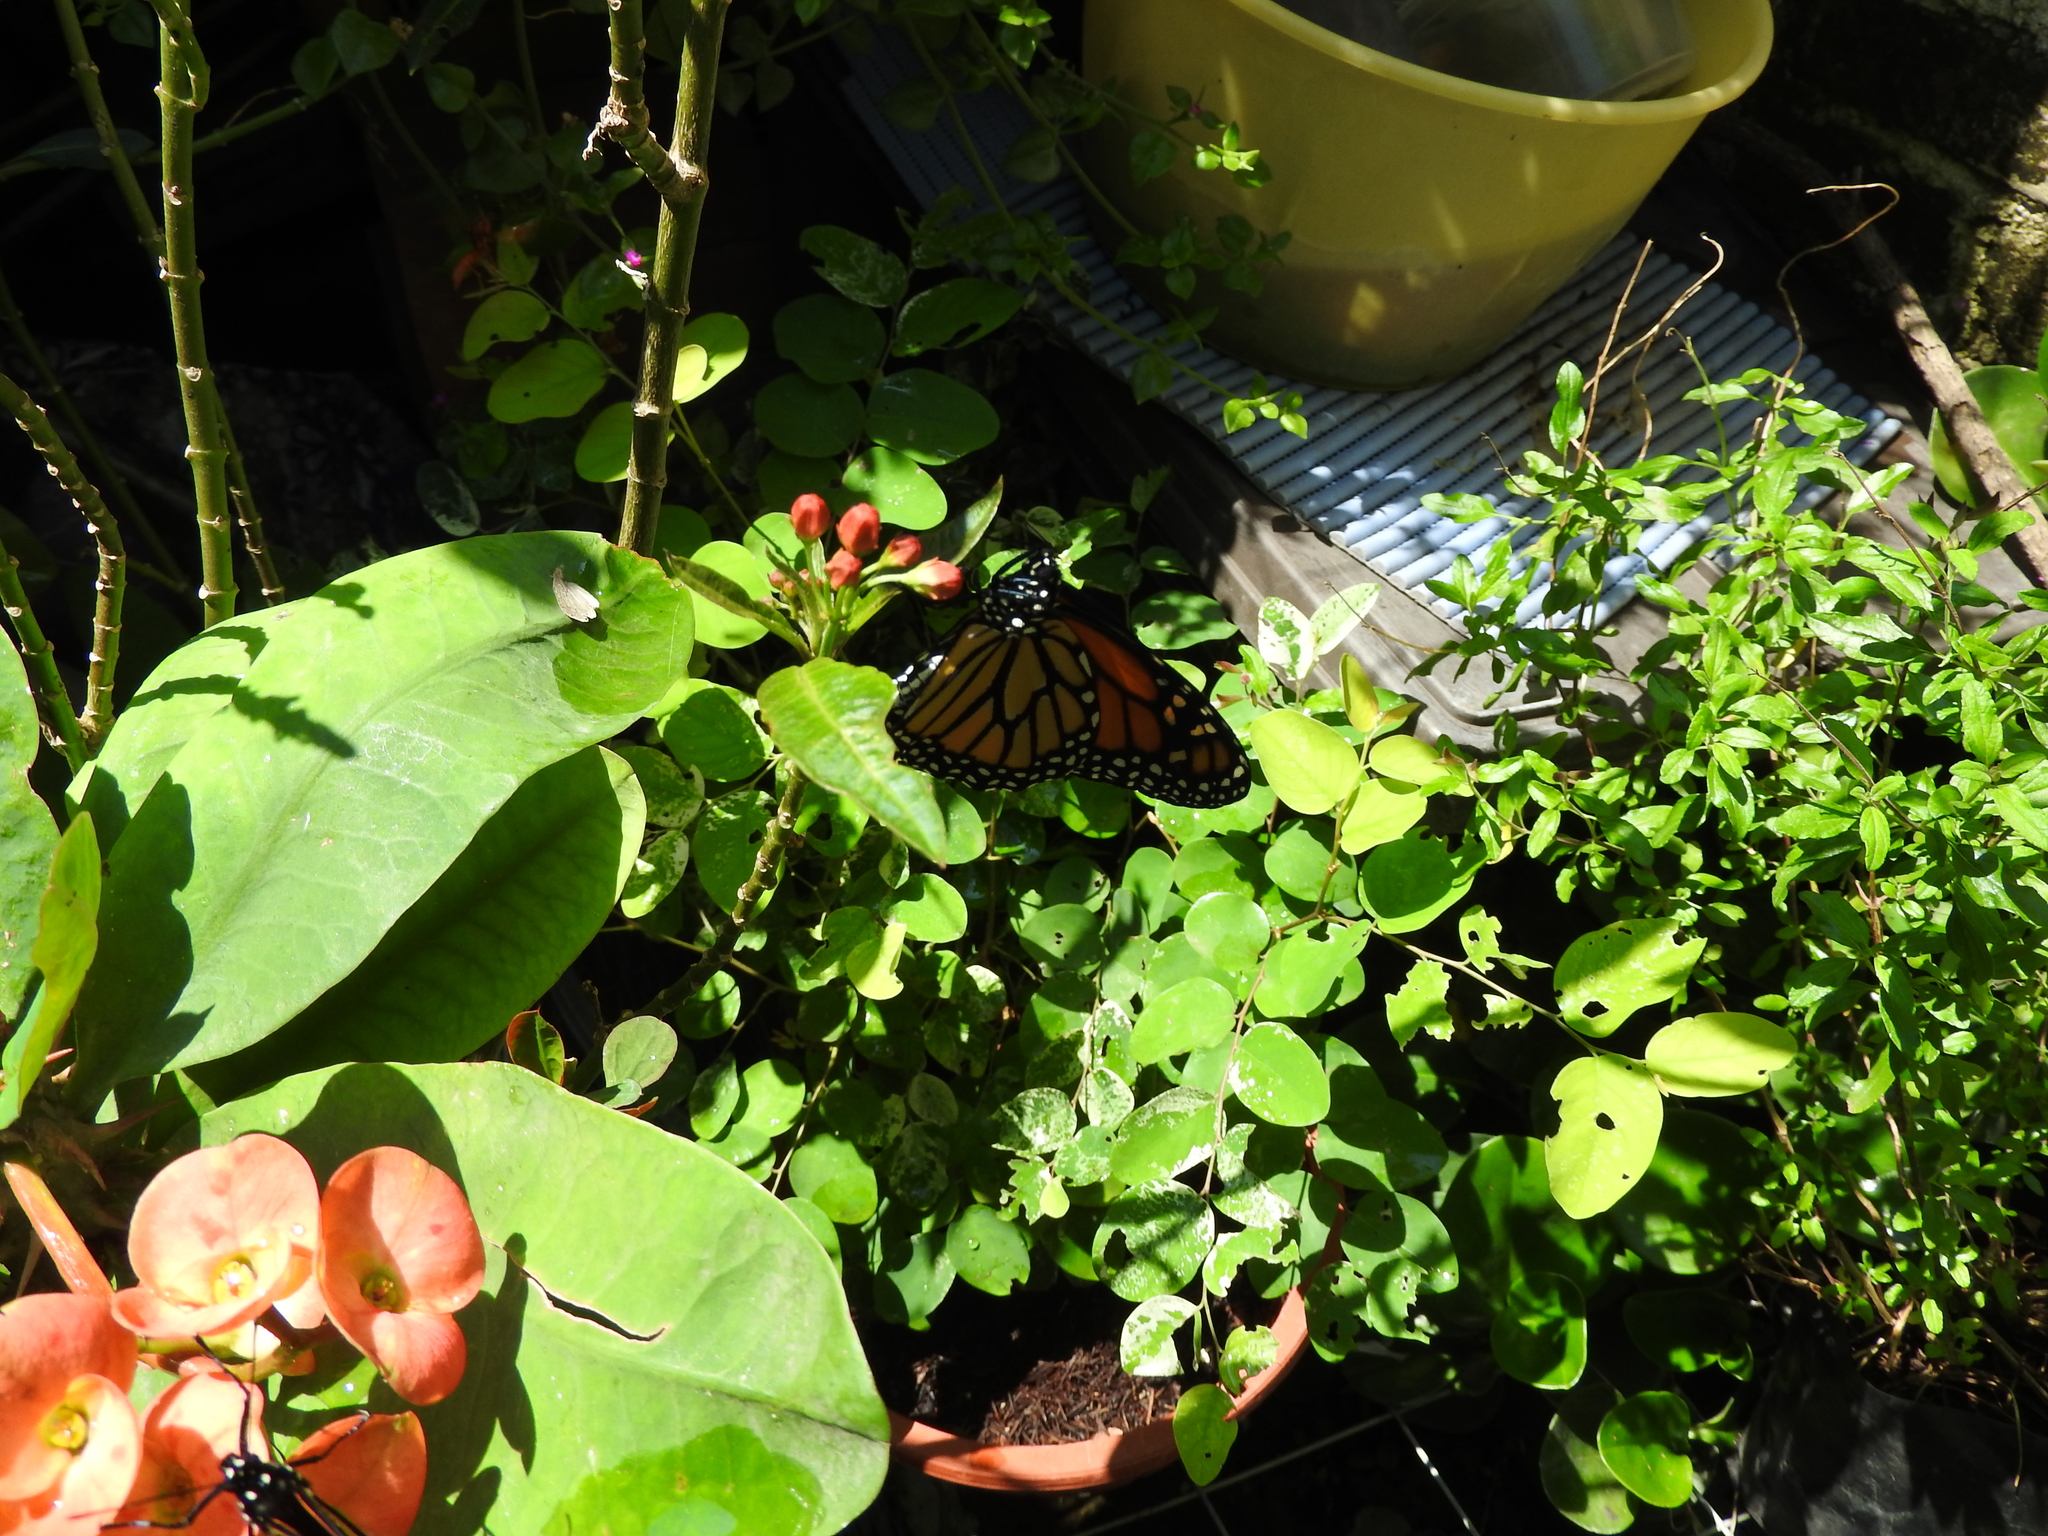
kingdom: Animalia
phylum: Arthropoda
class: Insecta
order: Lepidoptera
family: Nymphalidae
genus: Danaus
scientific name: Danaus plexippus
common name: Monarch
